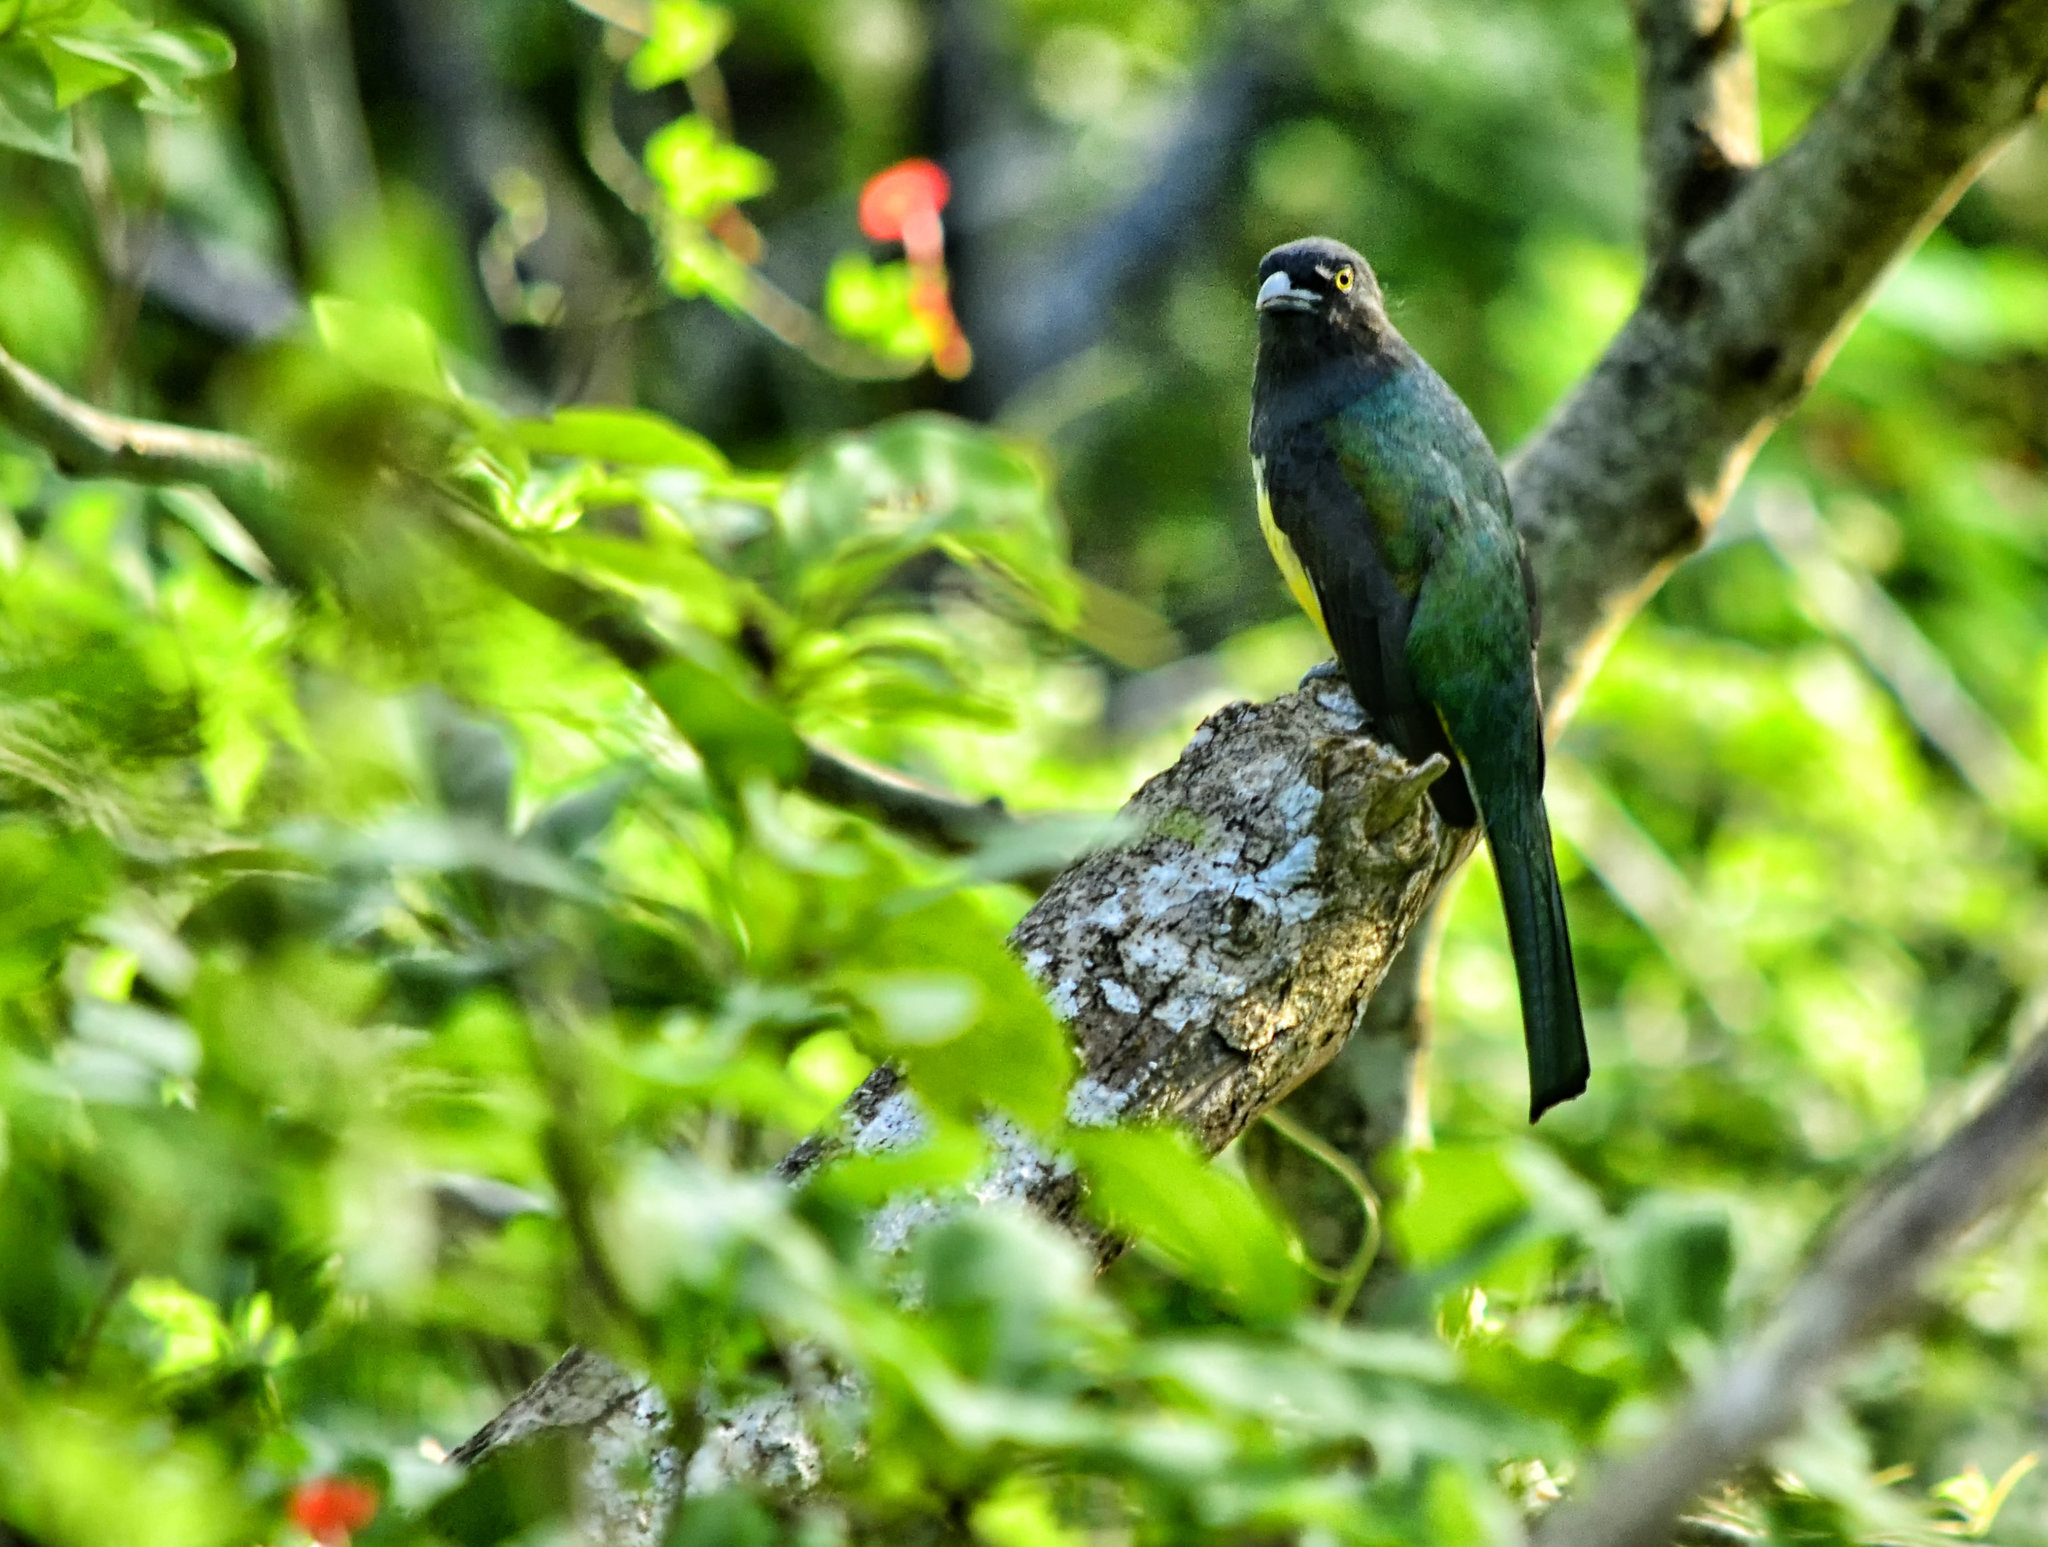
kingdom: Animalia
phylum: Chordata
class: Aves
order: Trogoniformes
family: Trogonidae
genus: Trogon
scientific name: Trogon citreolus
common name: Citreoline trogon
